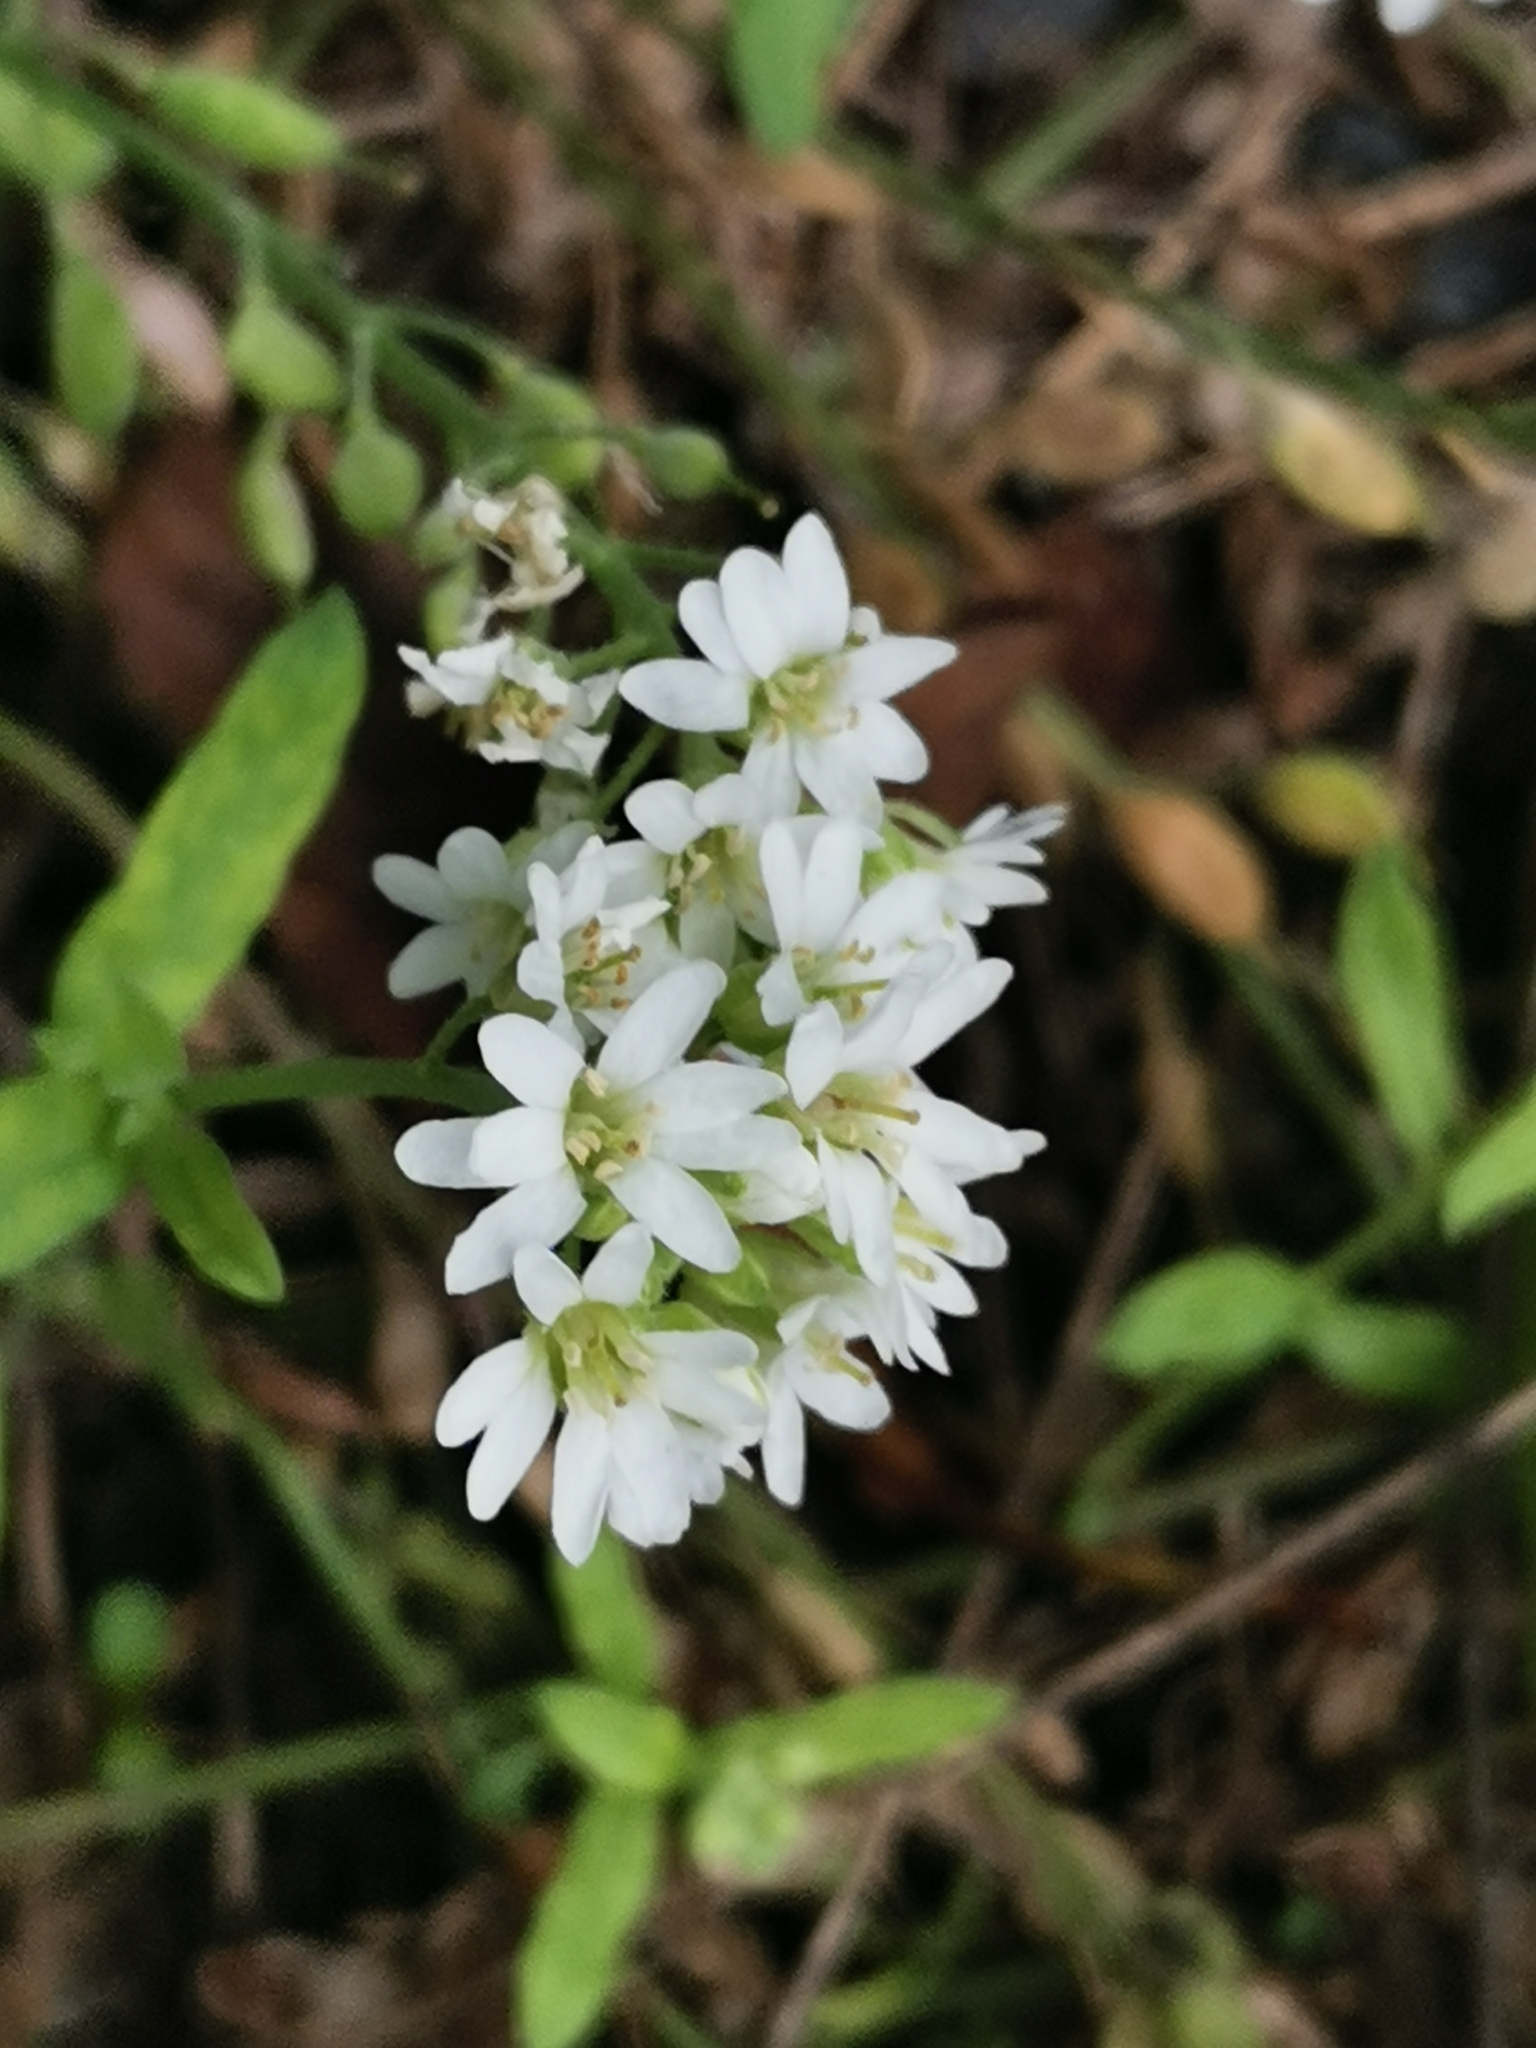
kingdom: Plantae
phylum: Tracheophyta
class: Magnoliopsida
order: Brassicales
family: Brassicaceae
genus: Berteroa
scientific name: Berteroa incana
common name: Hoary alison
